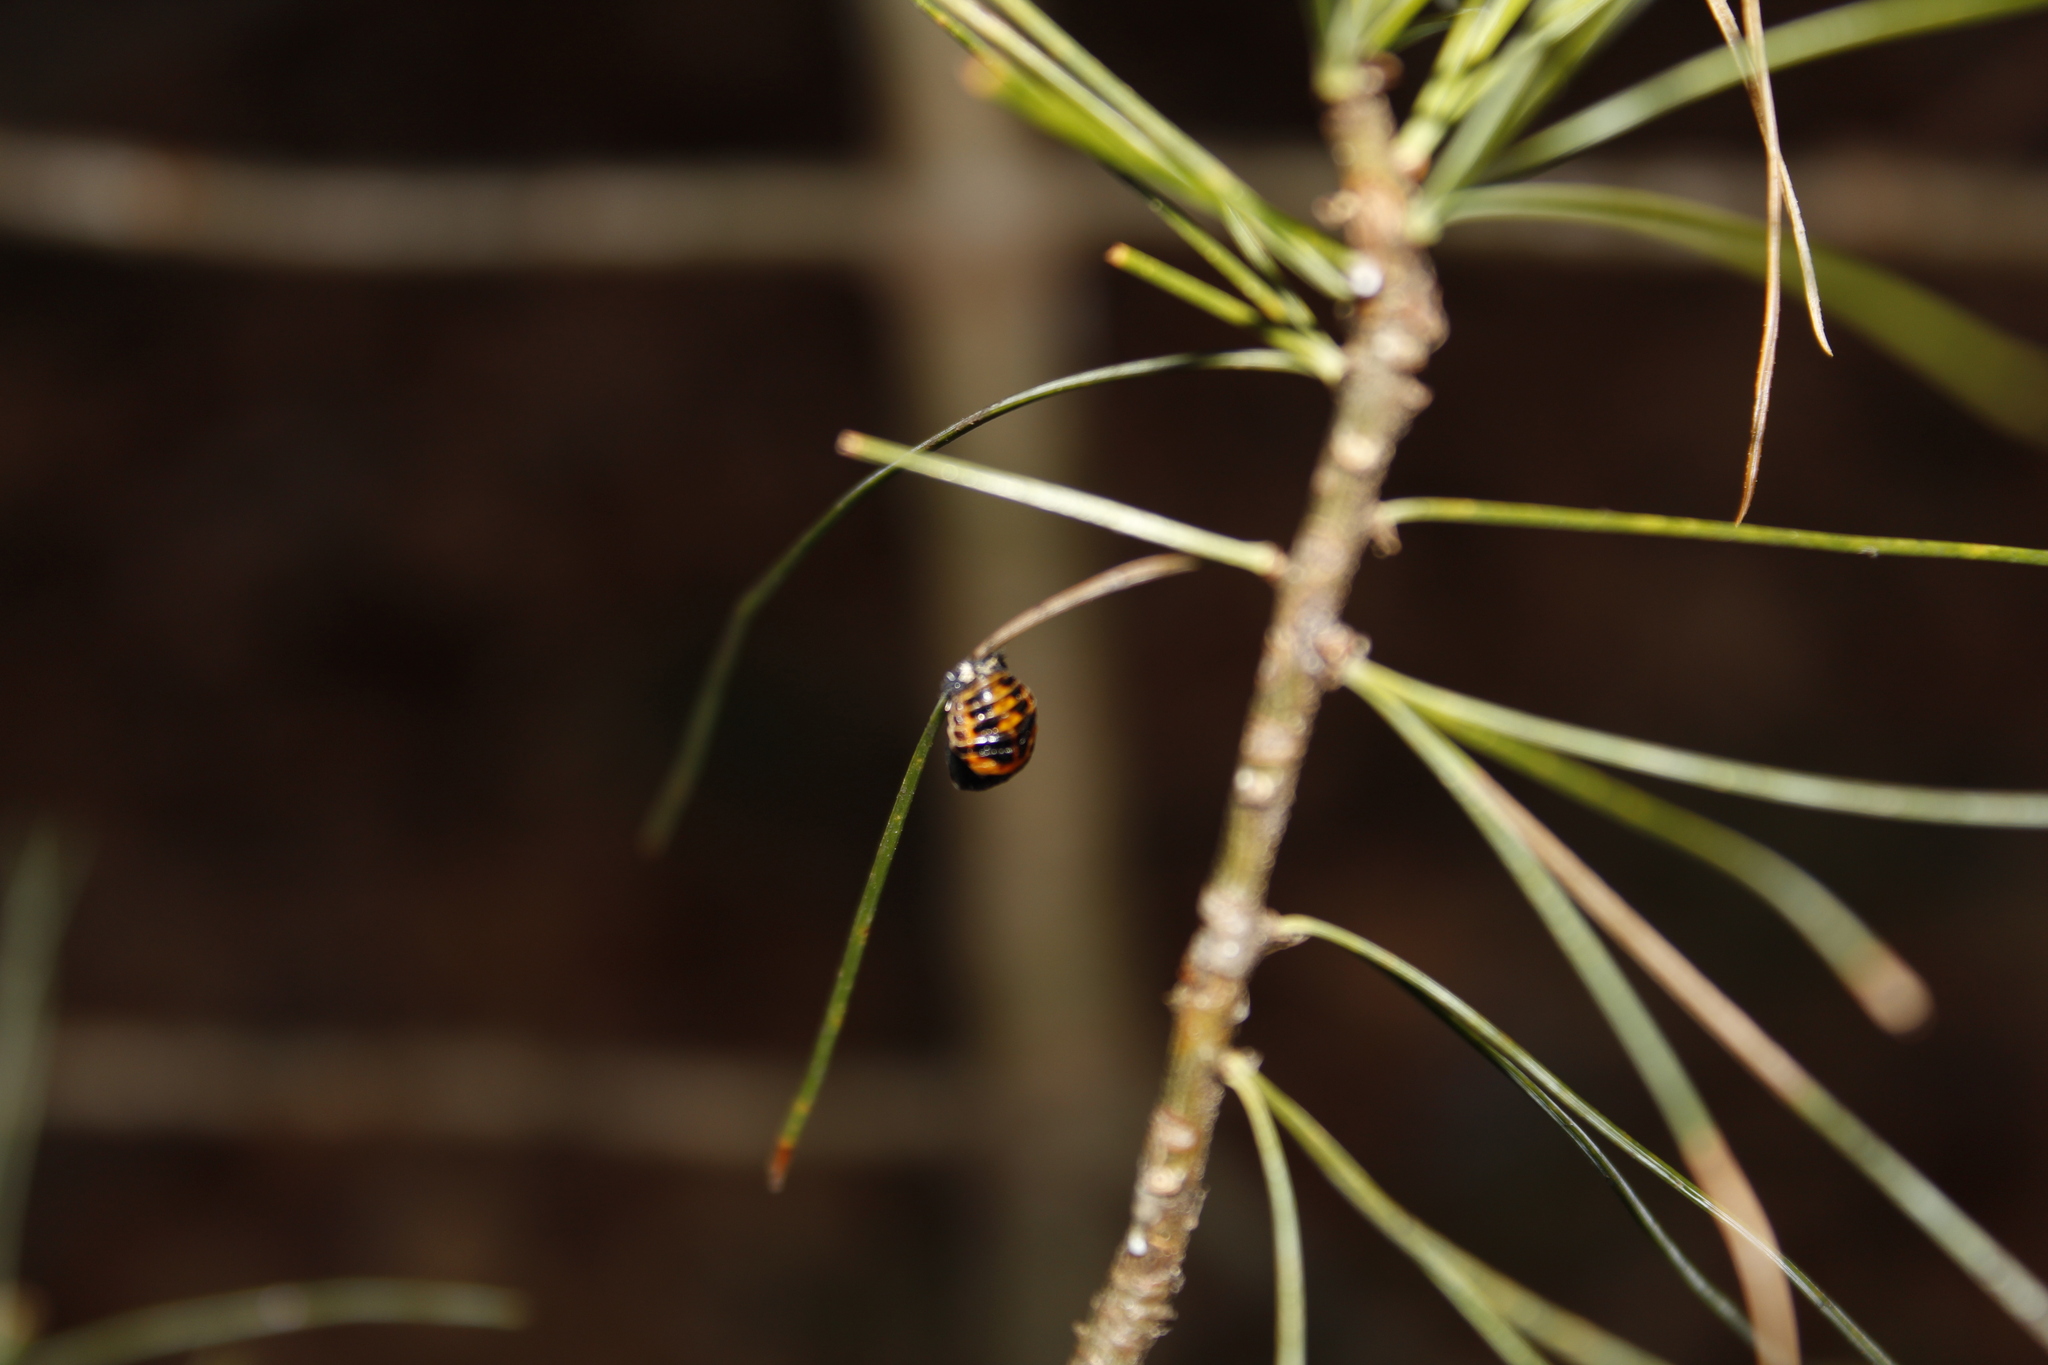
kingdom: Animalia
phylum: Arthropoda
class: Insecta
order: Coleoptera
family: Coccinellidae
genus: Harmonia
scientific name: Harmonia axyridis
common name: Harlequin ladybird
